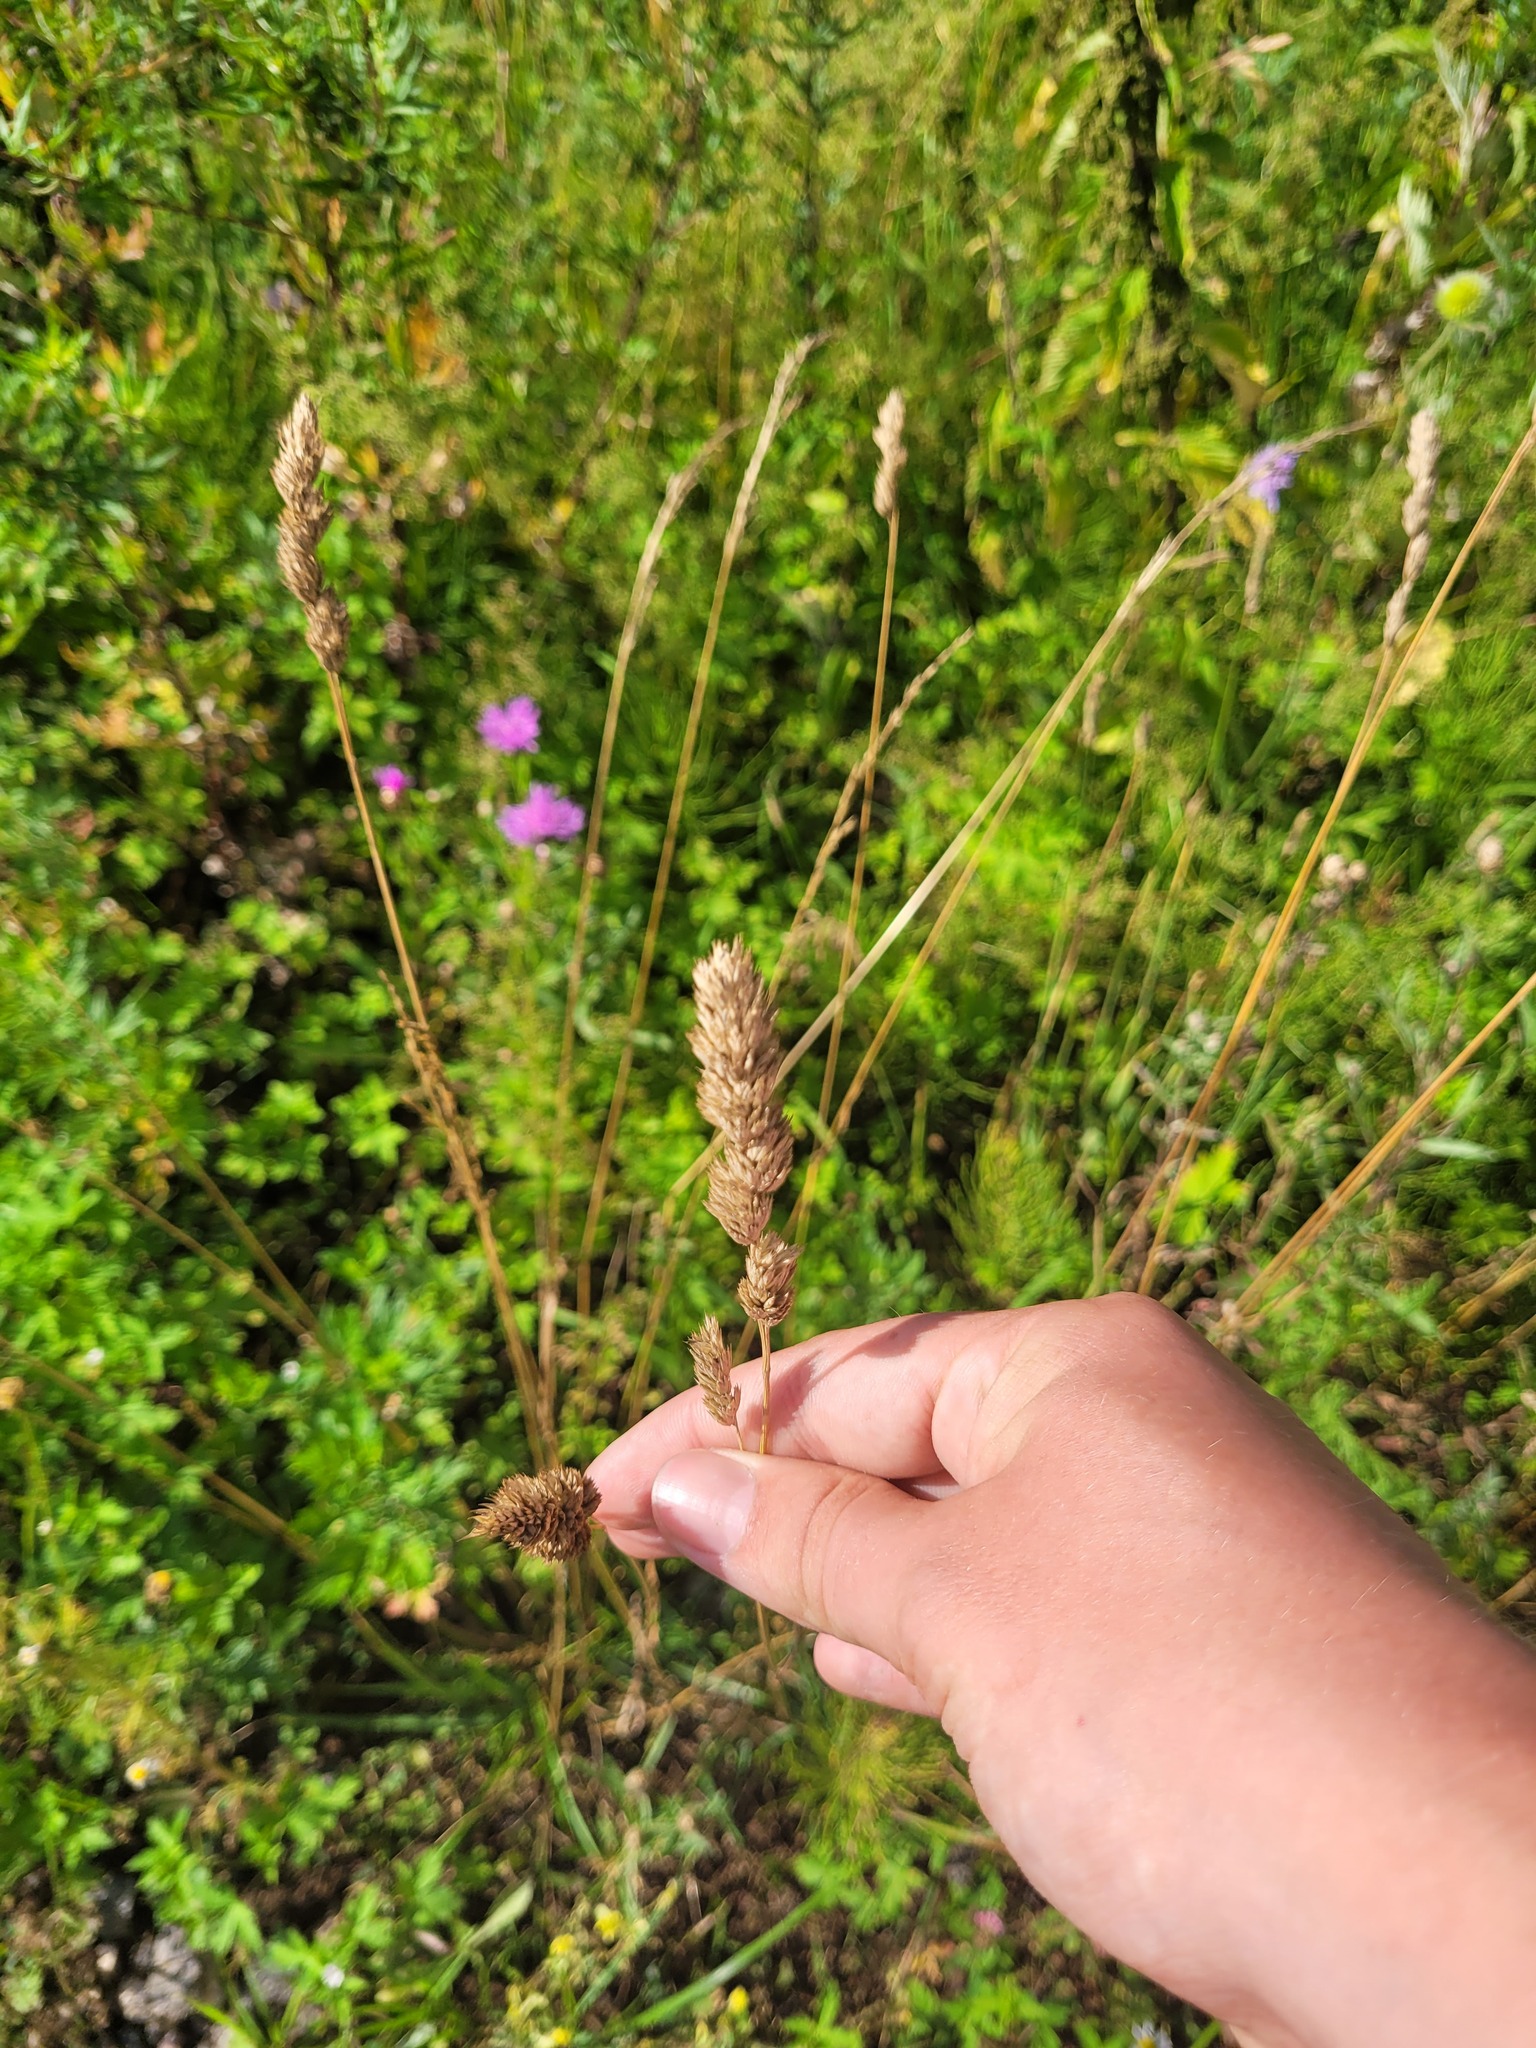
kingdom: Plantae
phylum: Tracheophyta
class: Liliopsida
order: Poales
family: Poaceae
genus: Dactylis
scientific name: Dactylis glomerata
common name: Orchardgrass
